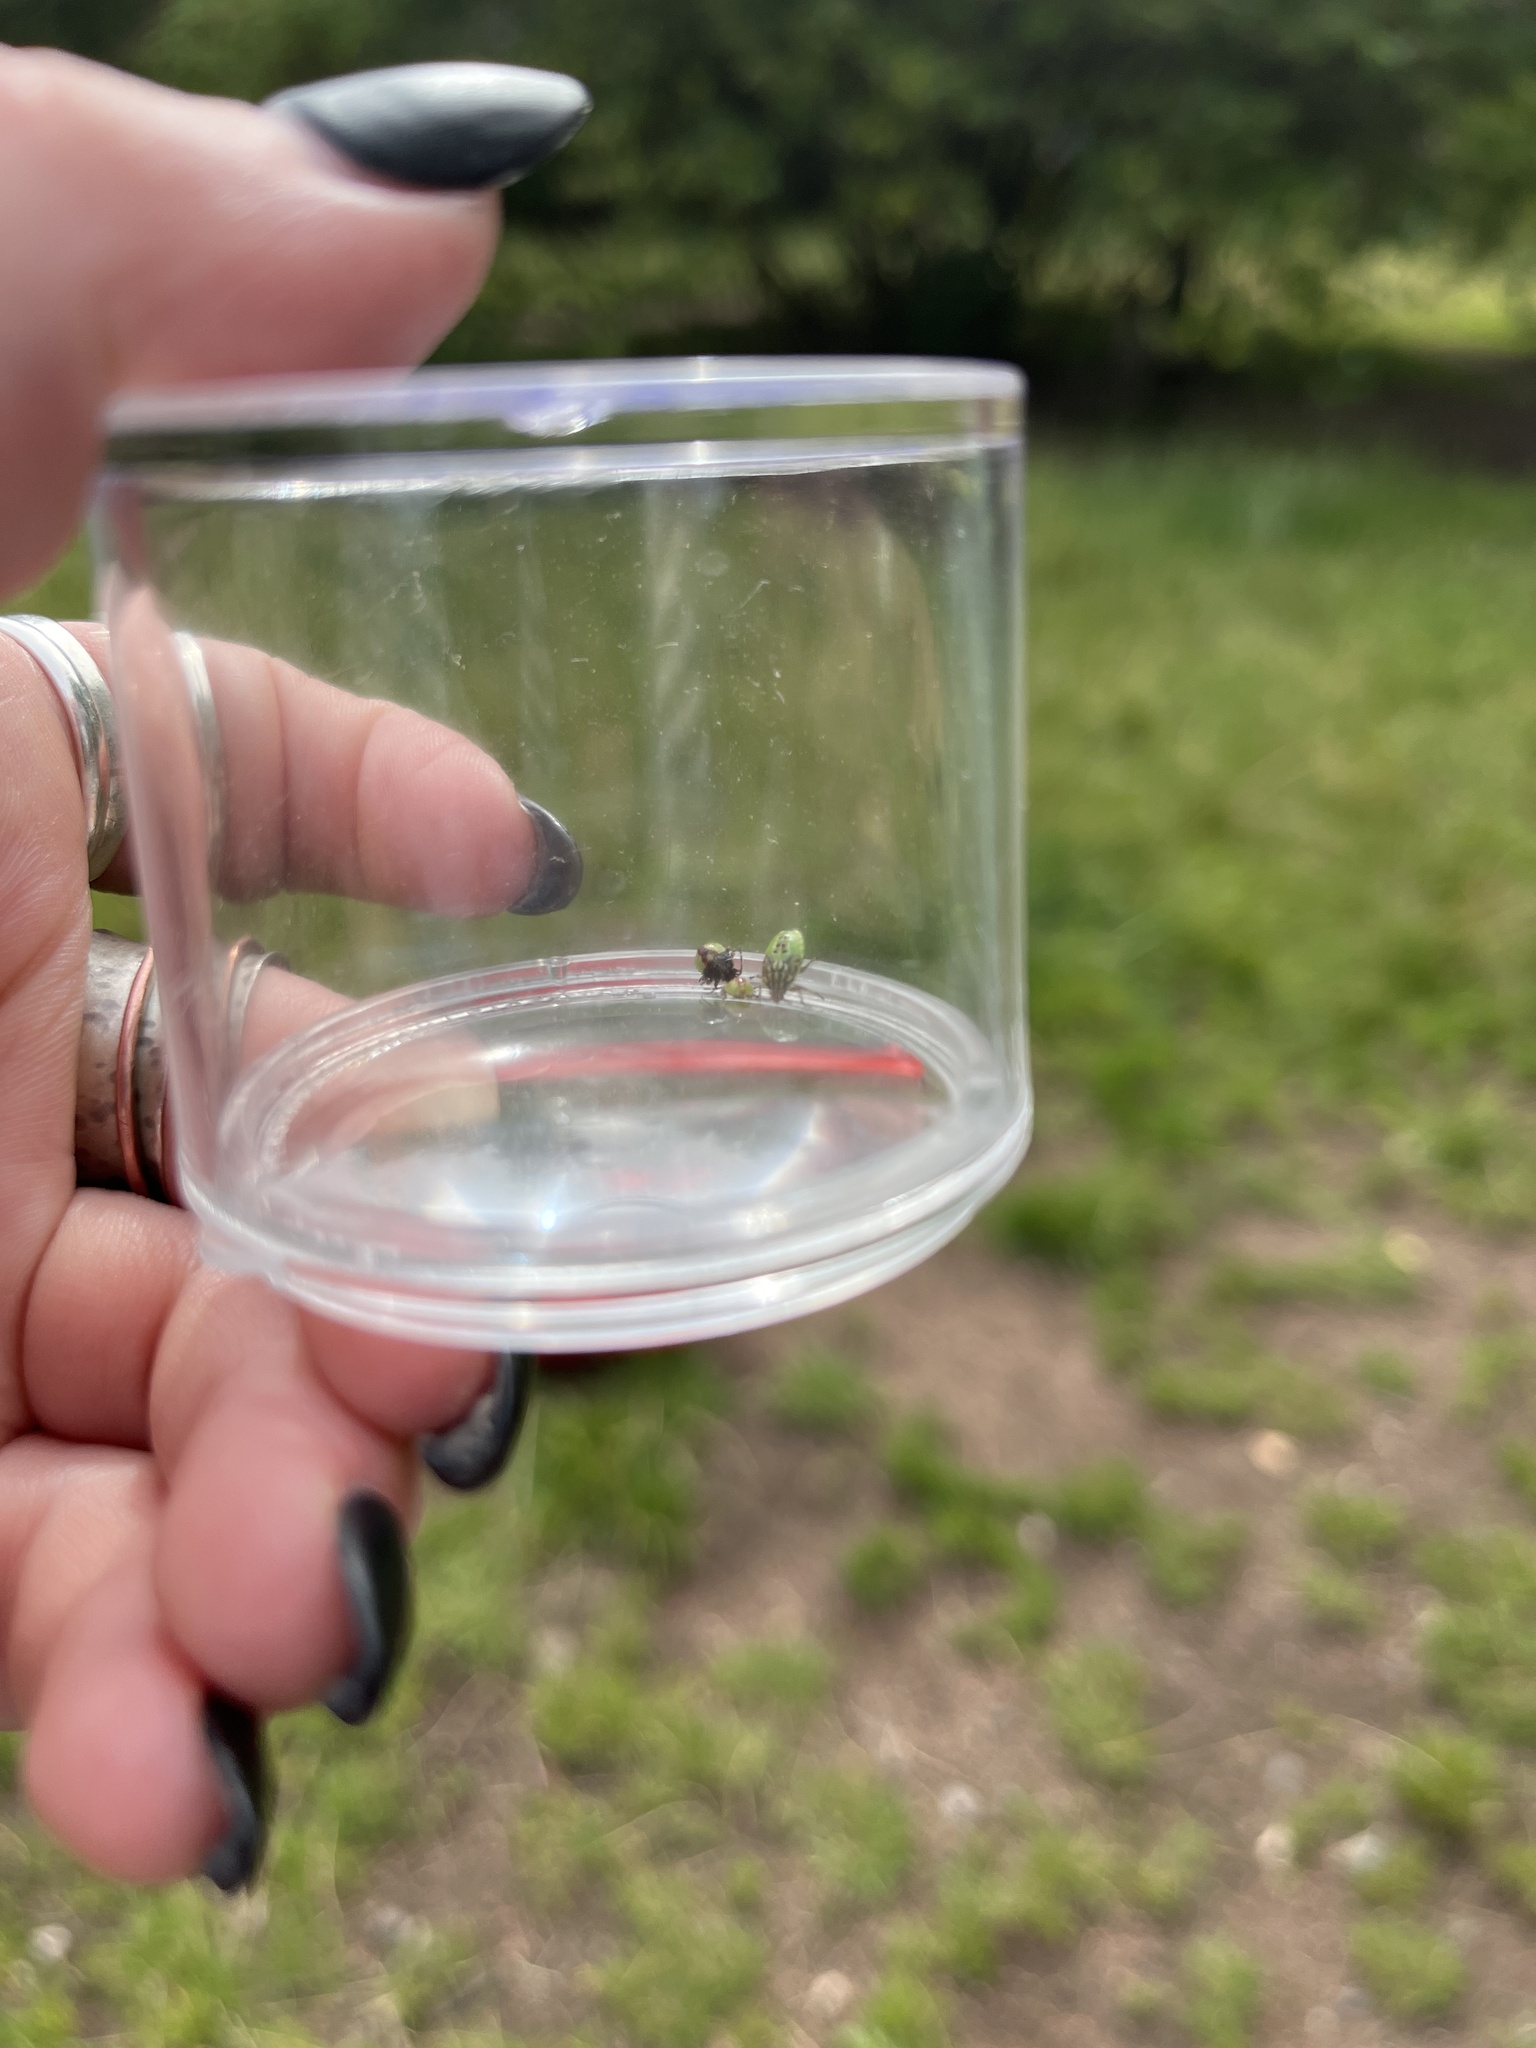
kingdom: Animalia
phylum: Arthropoda
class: Insecta
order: Hemiptera
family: Acanthosomatidae
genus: Elasmostethus
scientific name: Elasmostethus interstinctus
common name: Birch shieldbug
